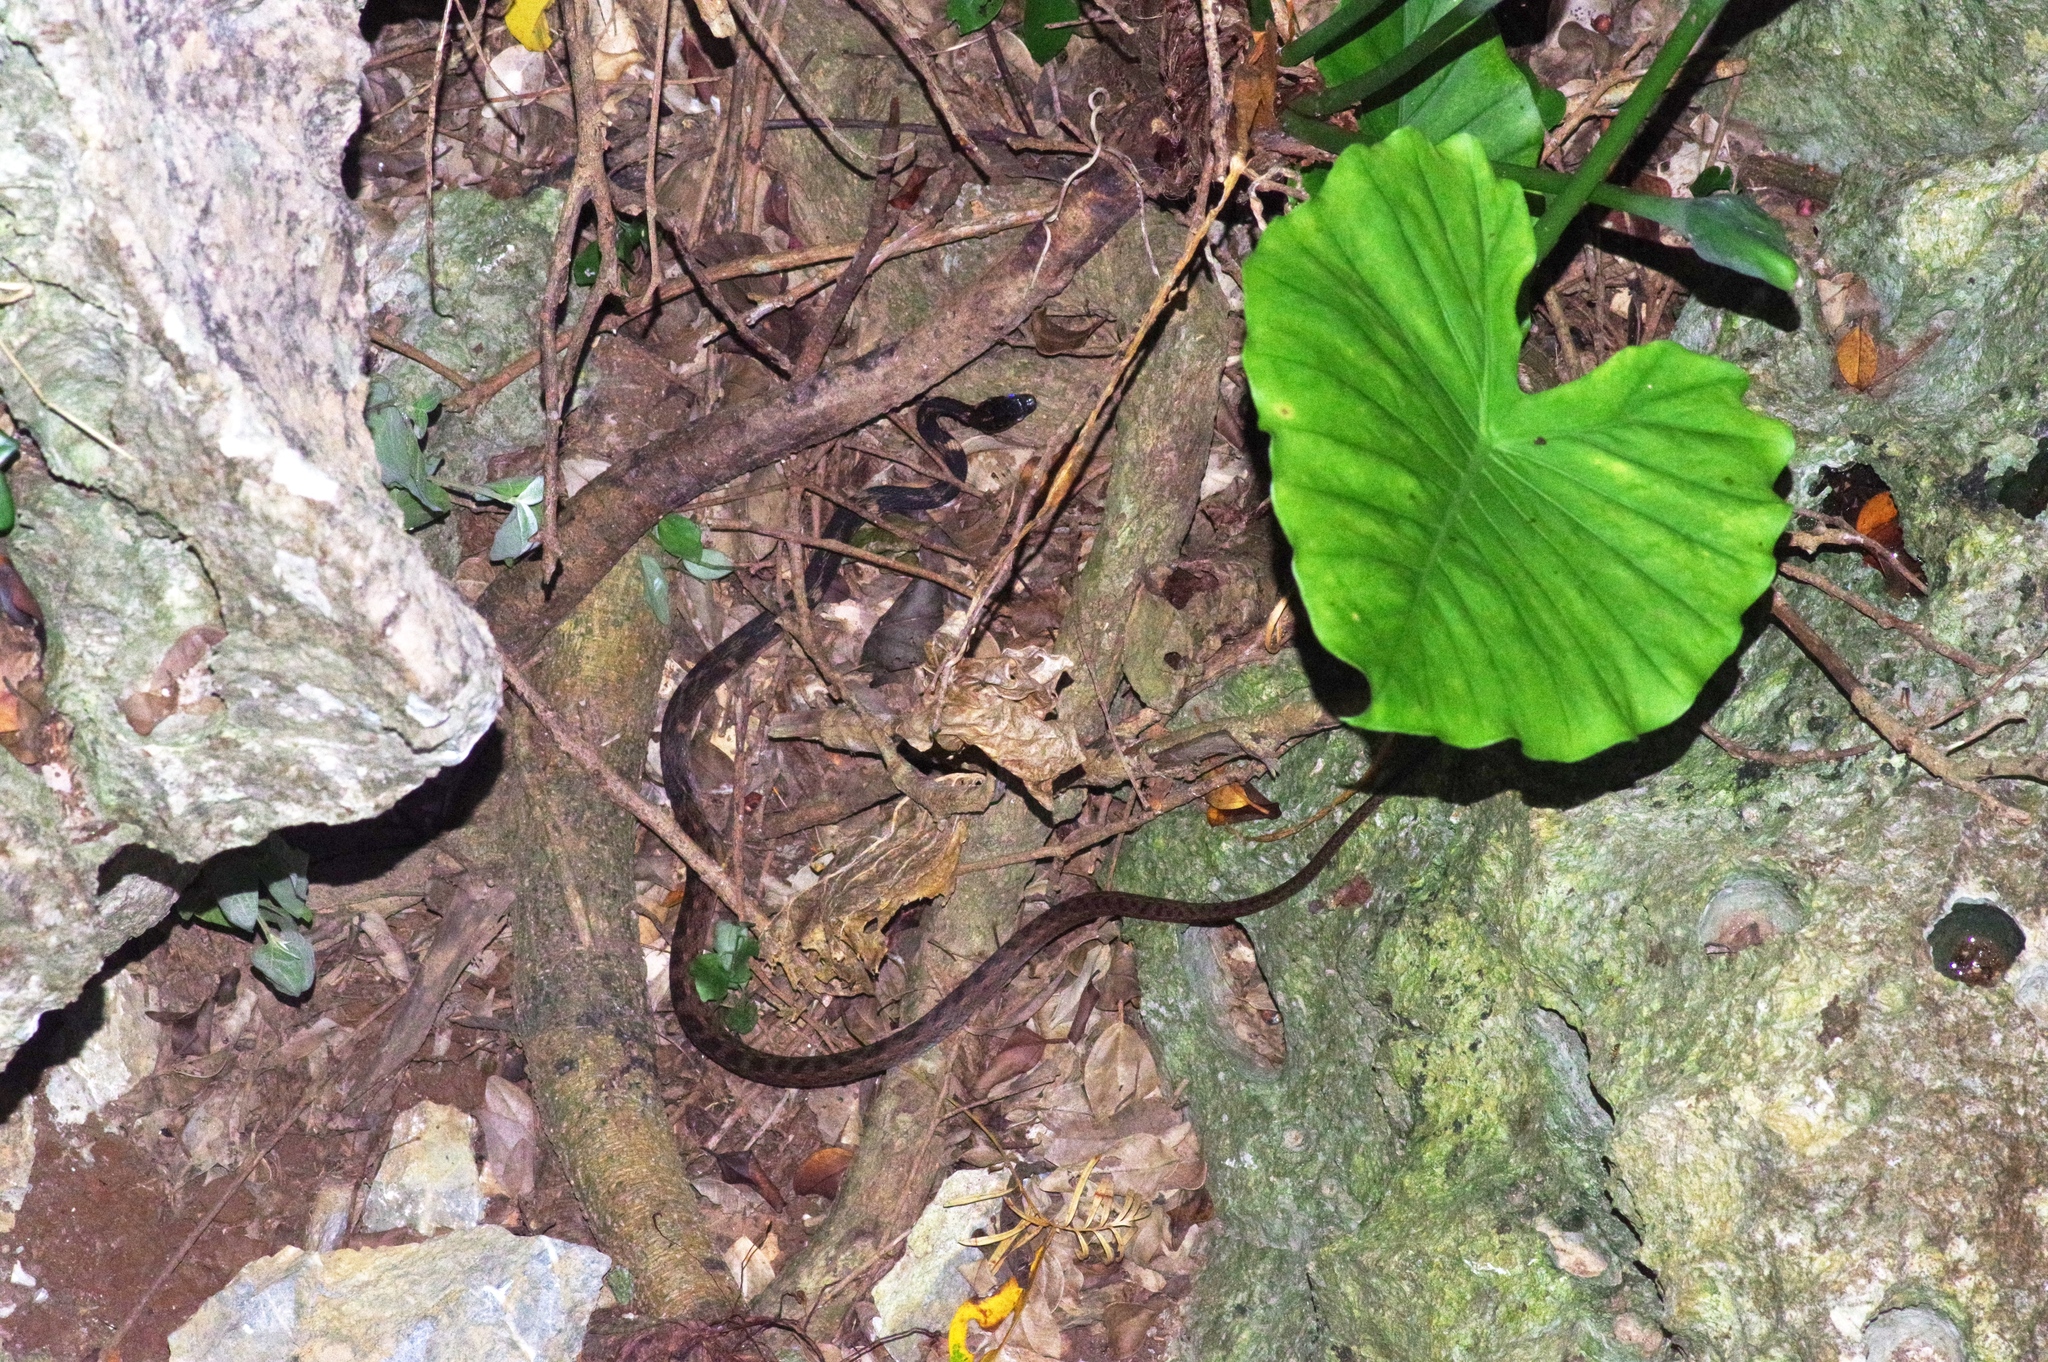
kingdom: Animalia
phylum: Chordata
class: Squamata
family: Colubridae
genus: Hebius
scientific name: Hebius pryeri
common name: Pryer's keelback
